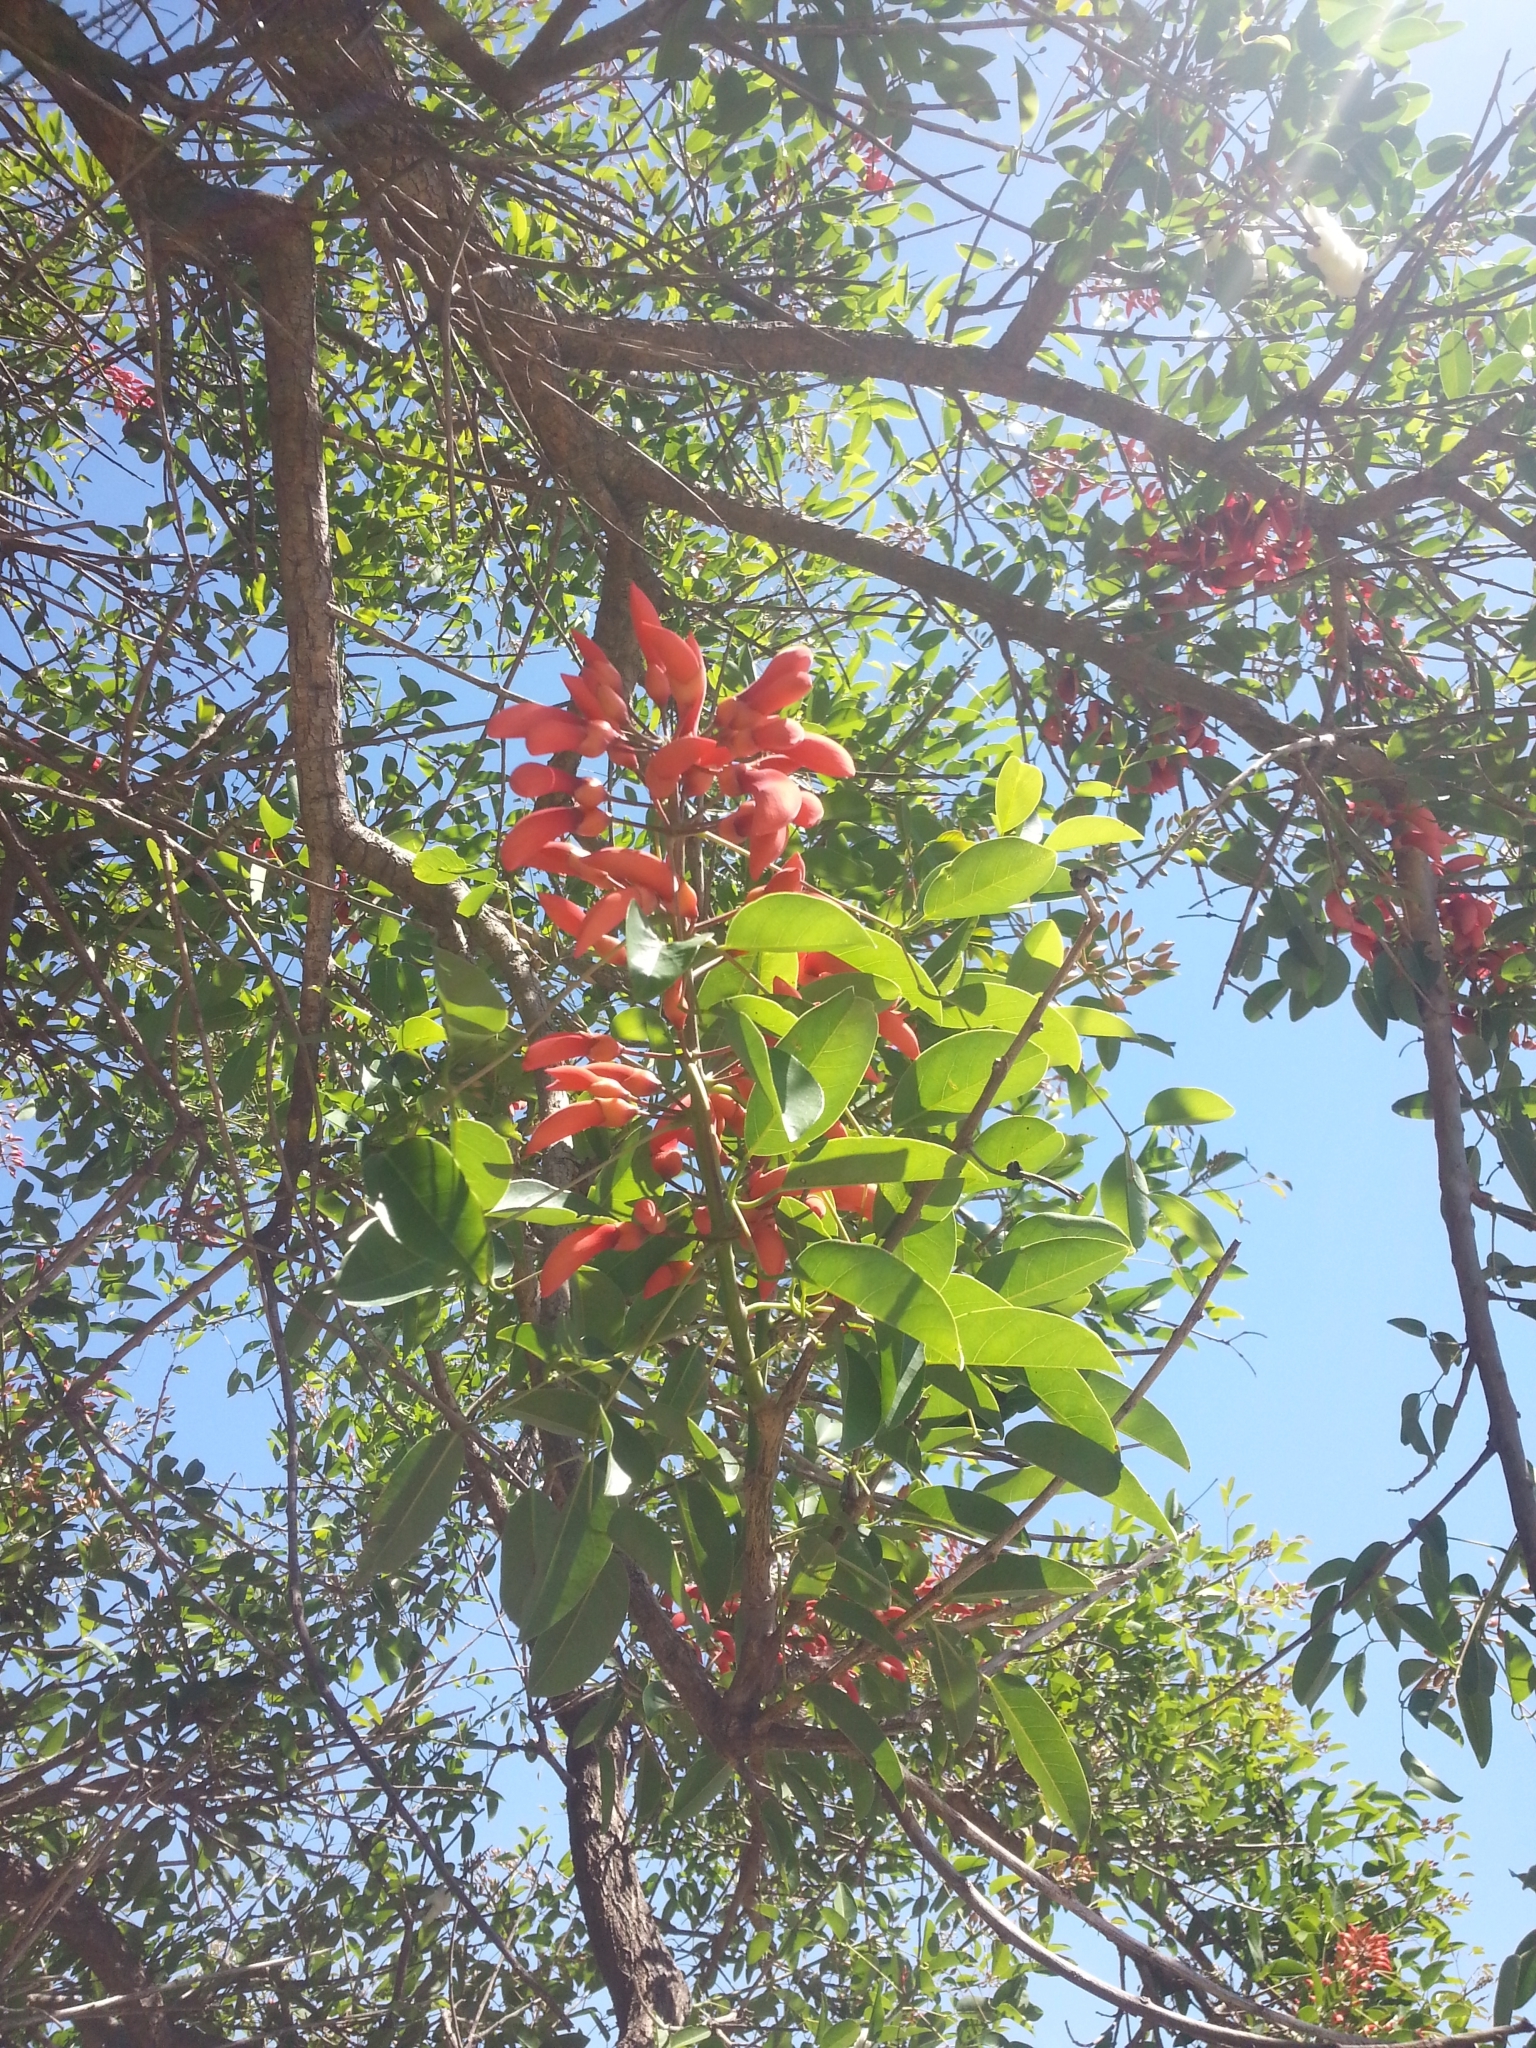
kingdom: Plantae
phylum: Tracheophyta
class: Magnoliopsida
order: Fabales
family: Fabaceae
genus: Erythrina
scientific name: Erythrina crista-galli
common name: Cockspur coral tree
